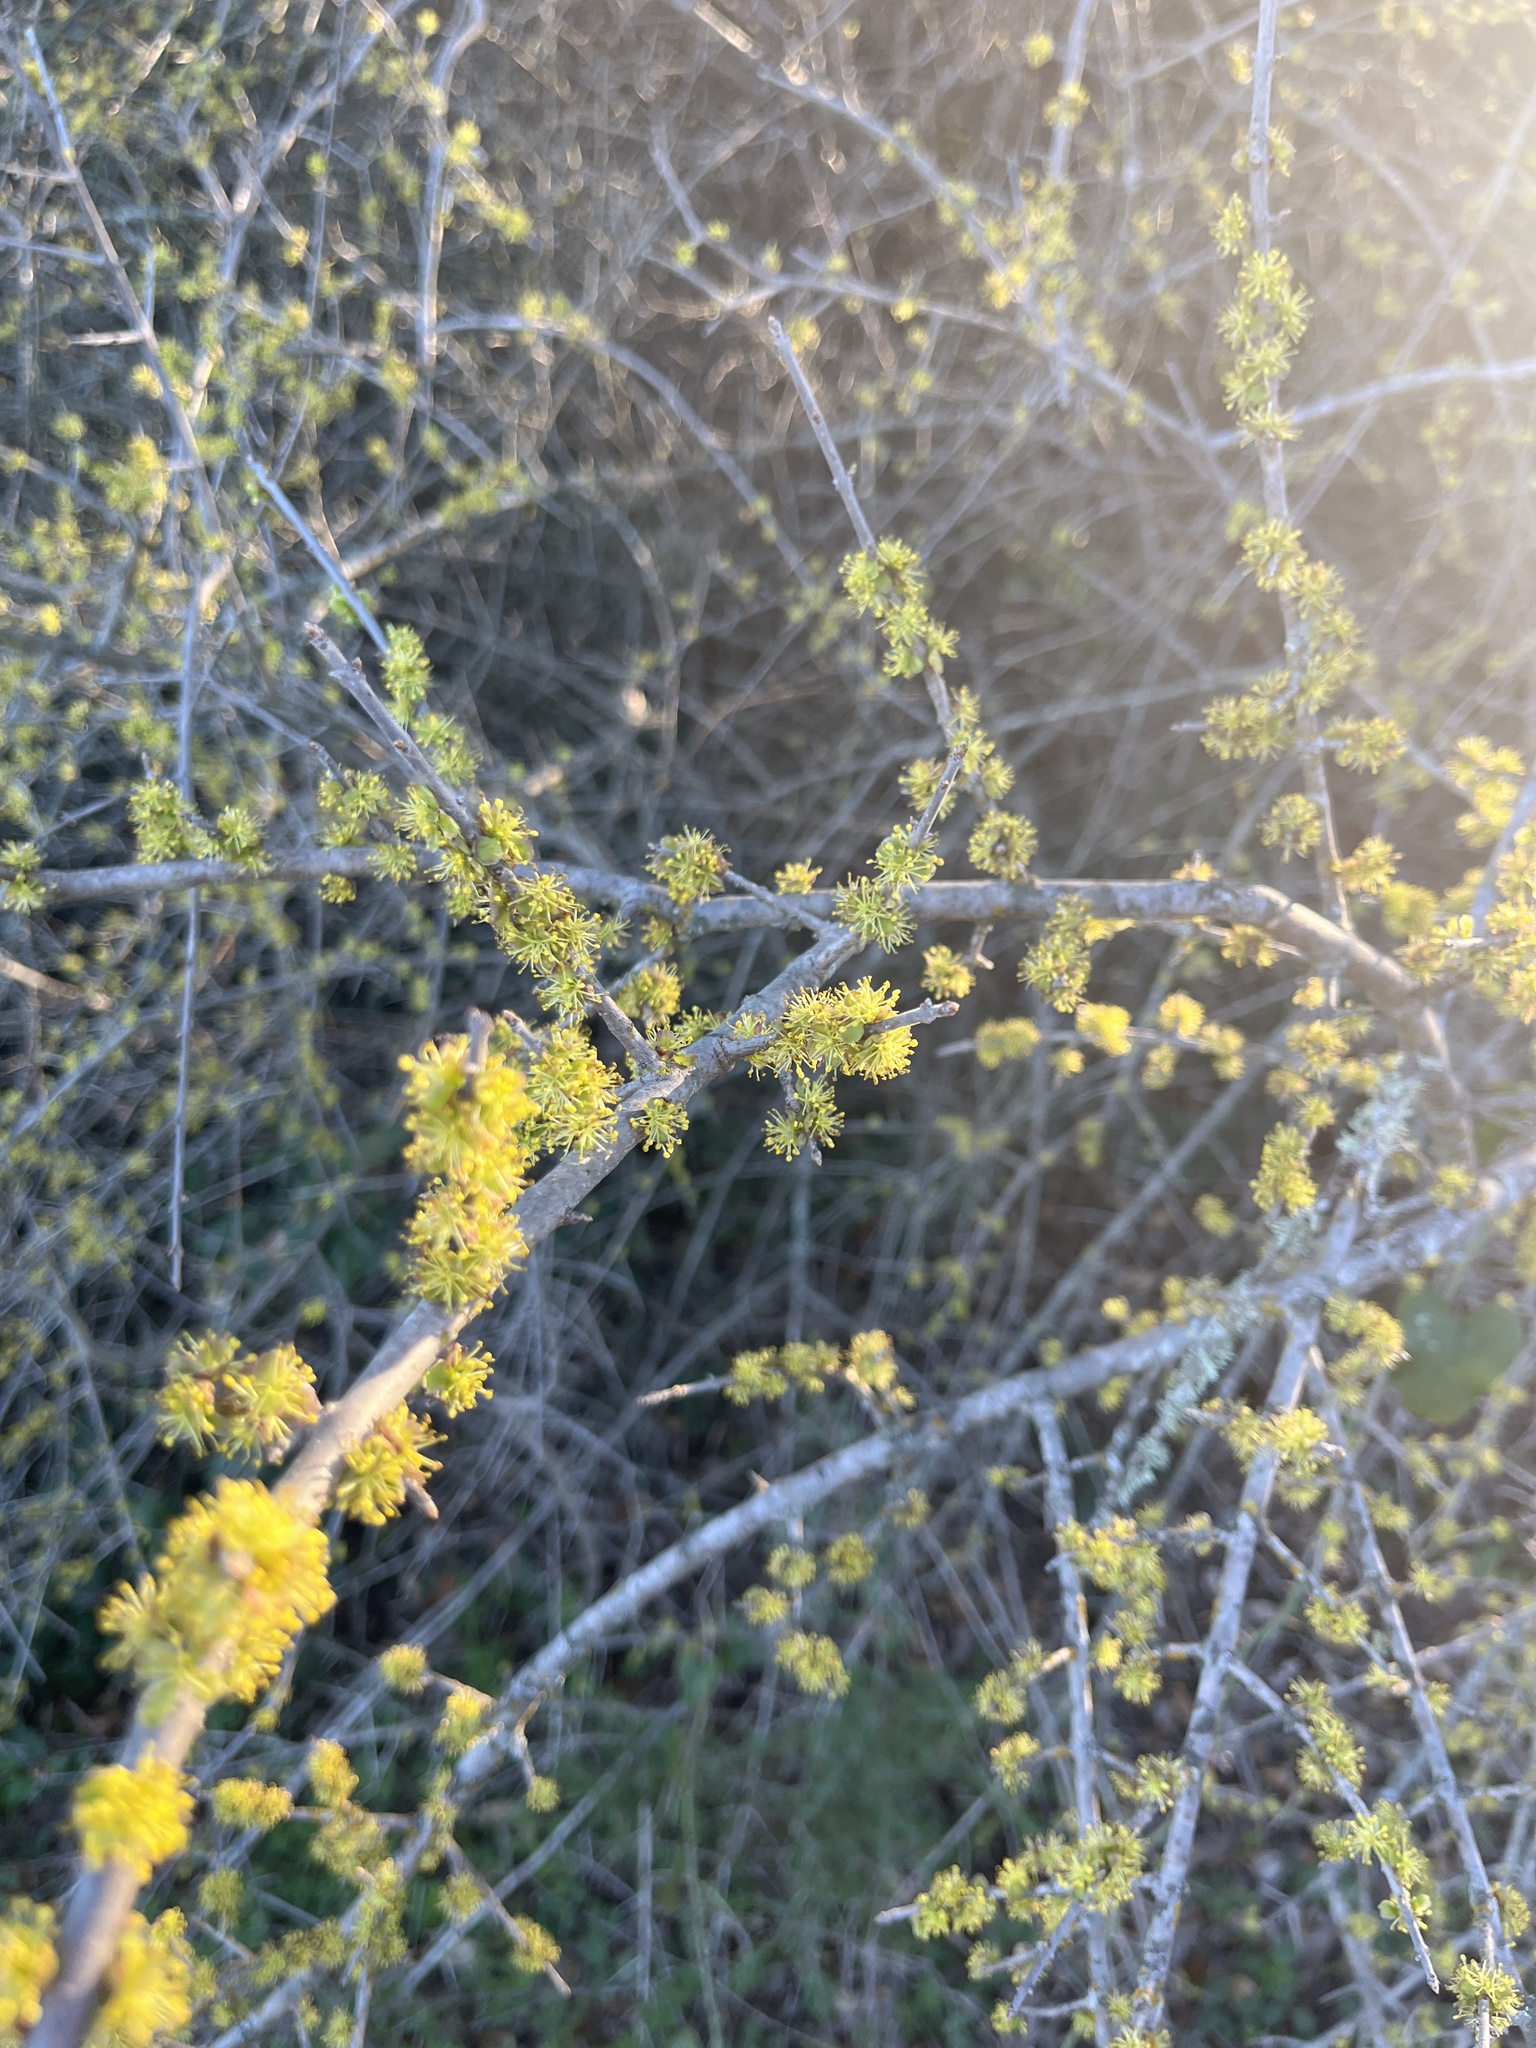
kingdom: Plantae
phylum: Tracheophyta
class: Magnoliopsida
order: Lamiales
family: Oleaceae
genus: Forestiera
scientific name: Forestiera pubescens
